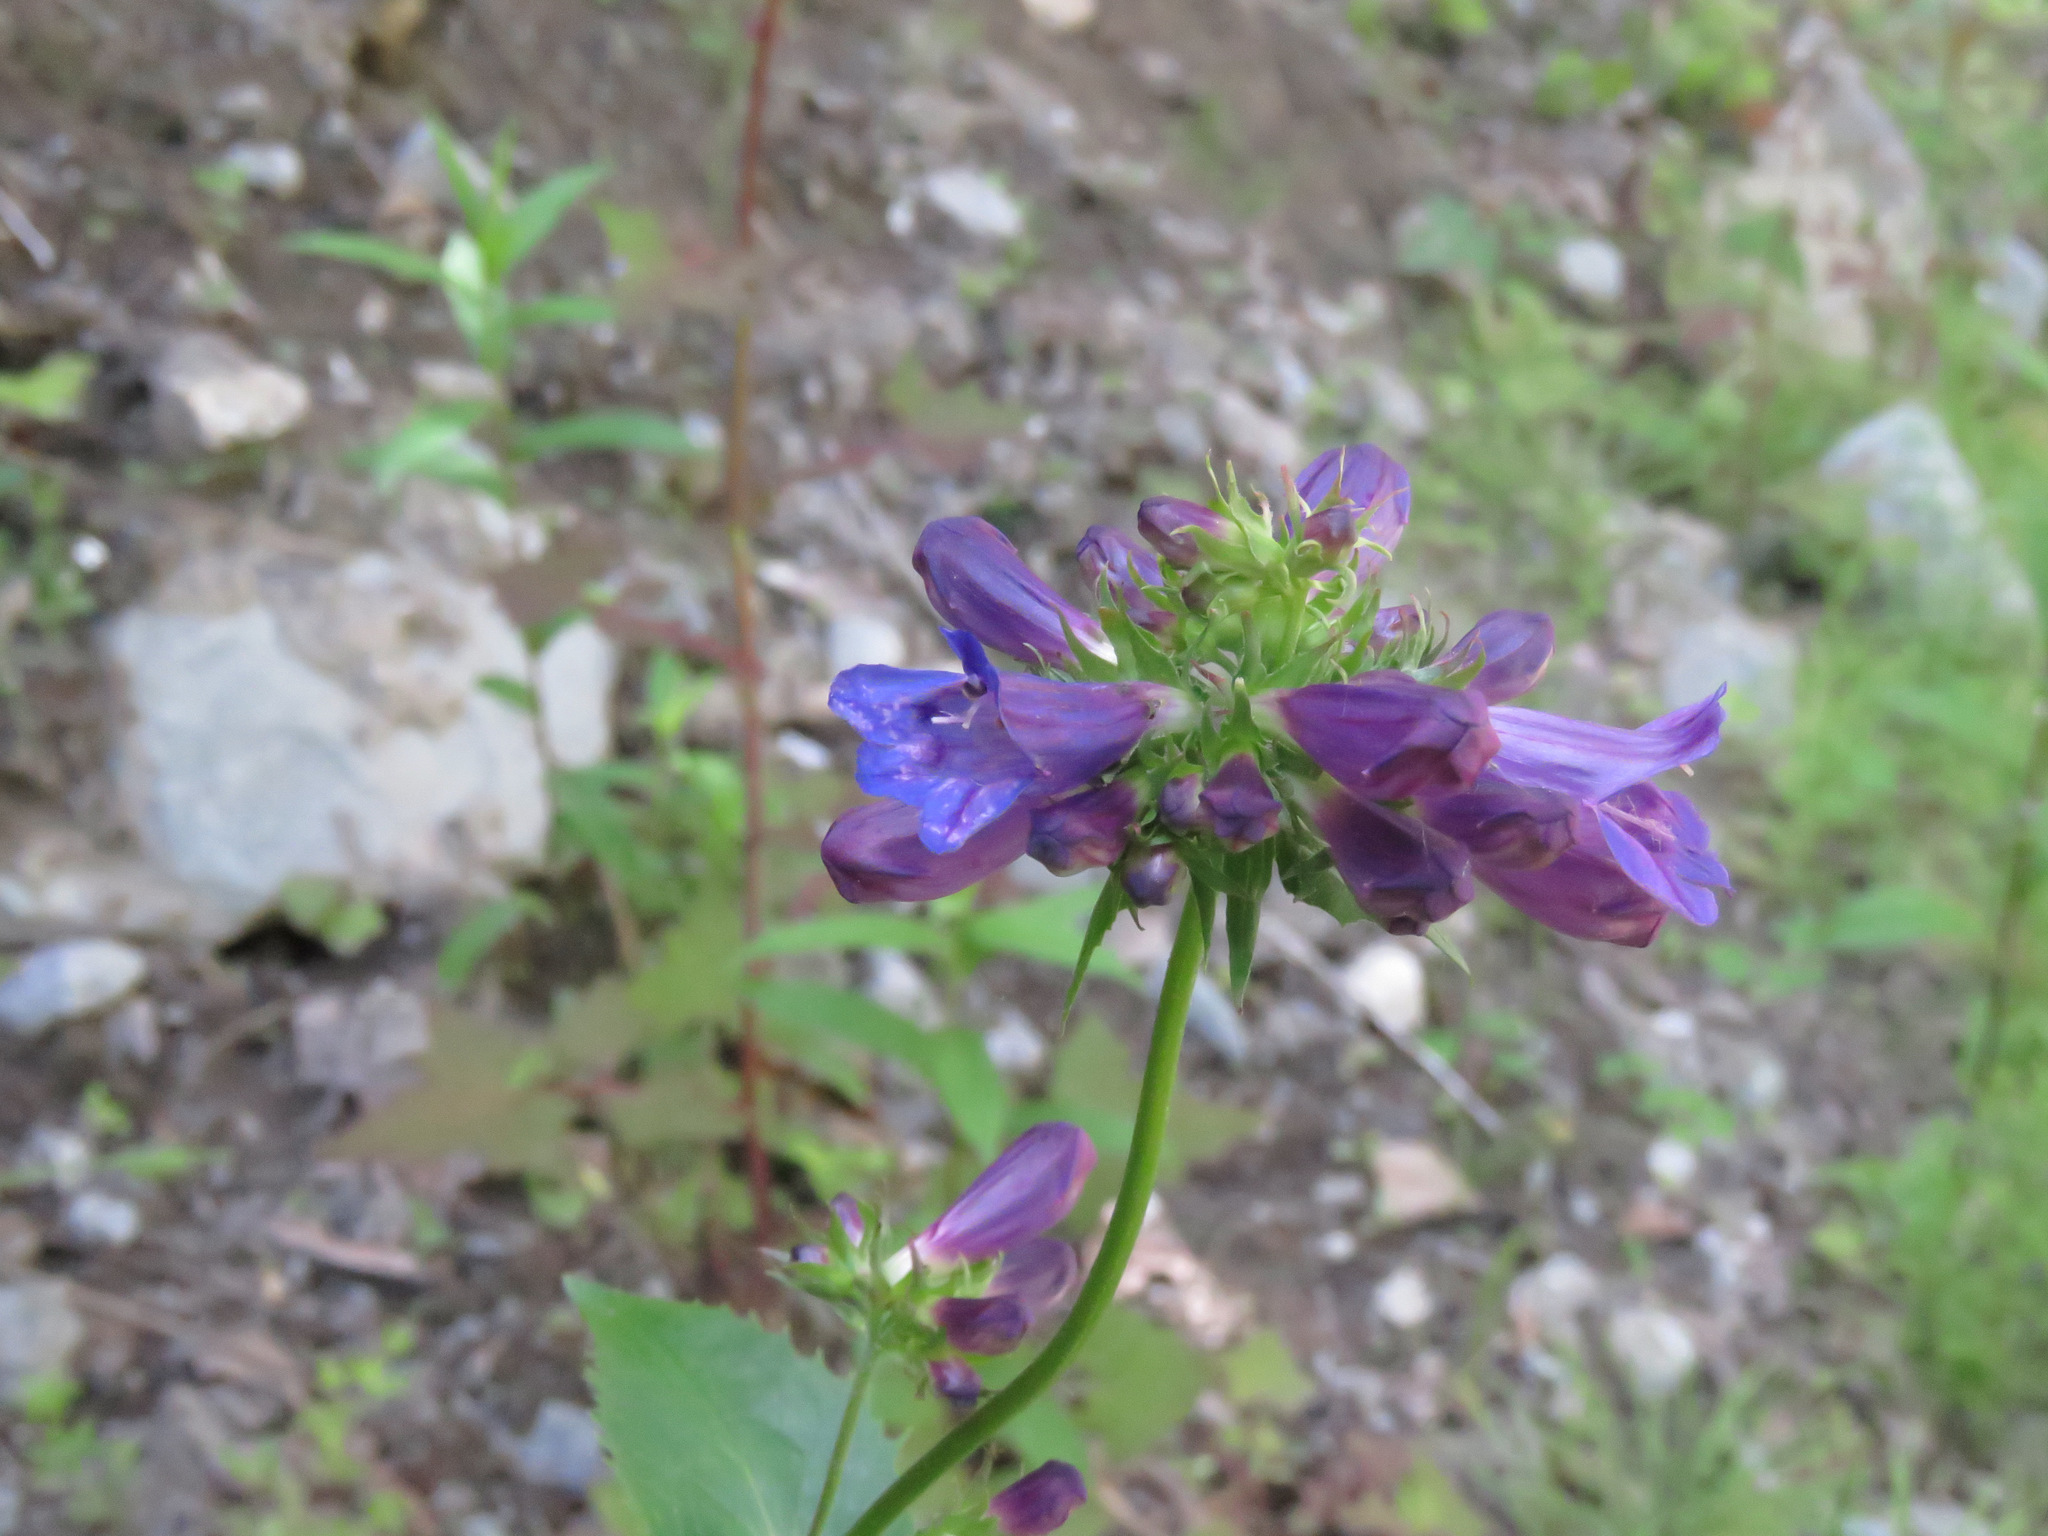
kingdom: Plantae
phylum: Tracheophyta
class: Magnoliopsida
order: Lamiales
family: Plantaginaceae
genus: Penstemon
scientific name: Penstemon serrulatus
